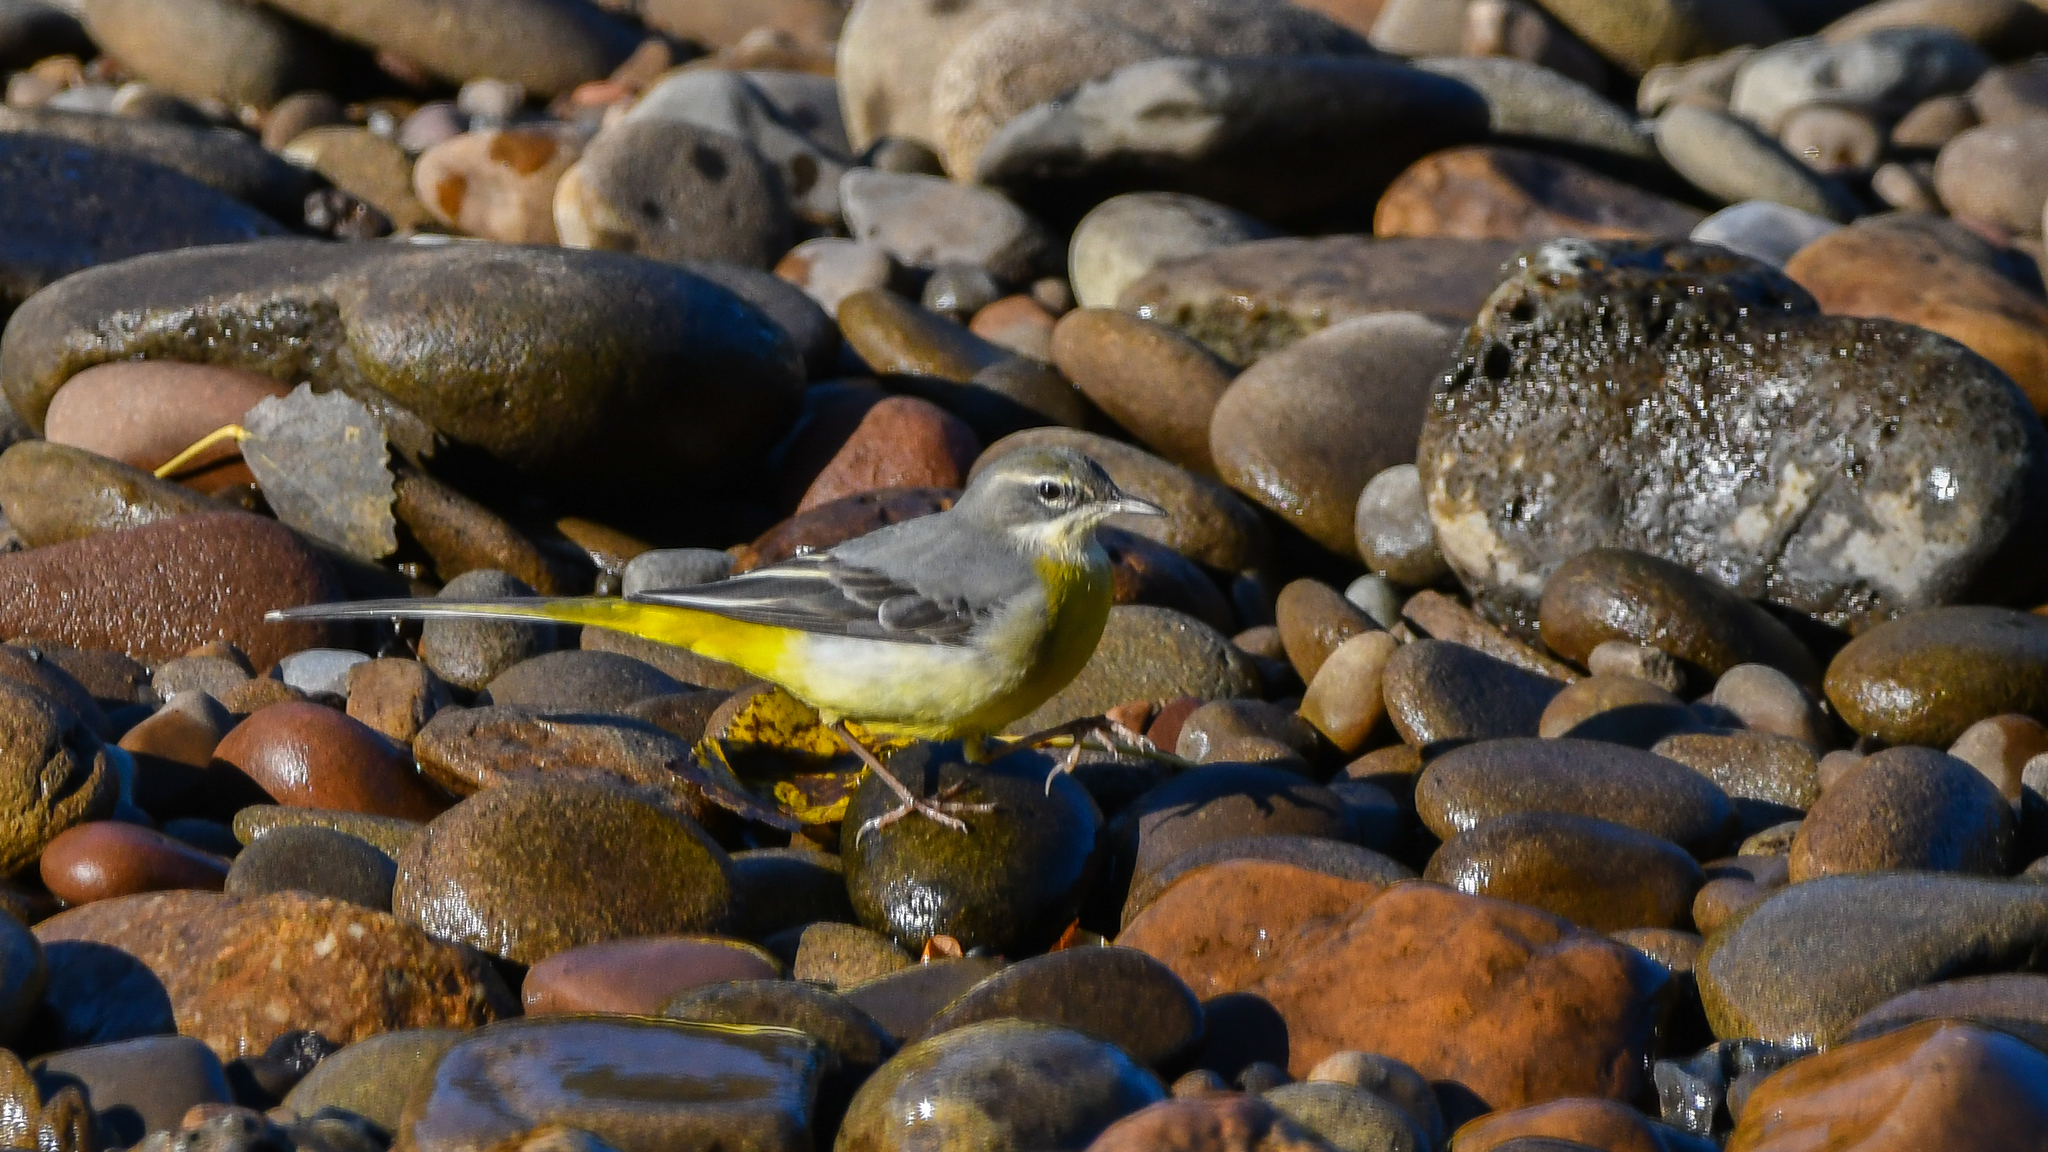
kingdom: Animalia
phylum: Chordata
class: Aves
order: Passeriformes
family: Motacillidae
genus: Motacilla
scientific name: Motacilla cinerea
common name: Grey wagtail
